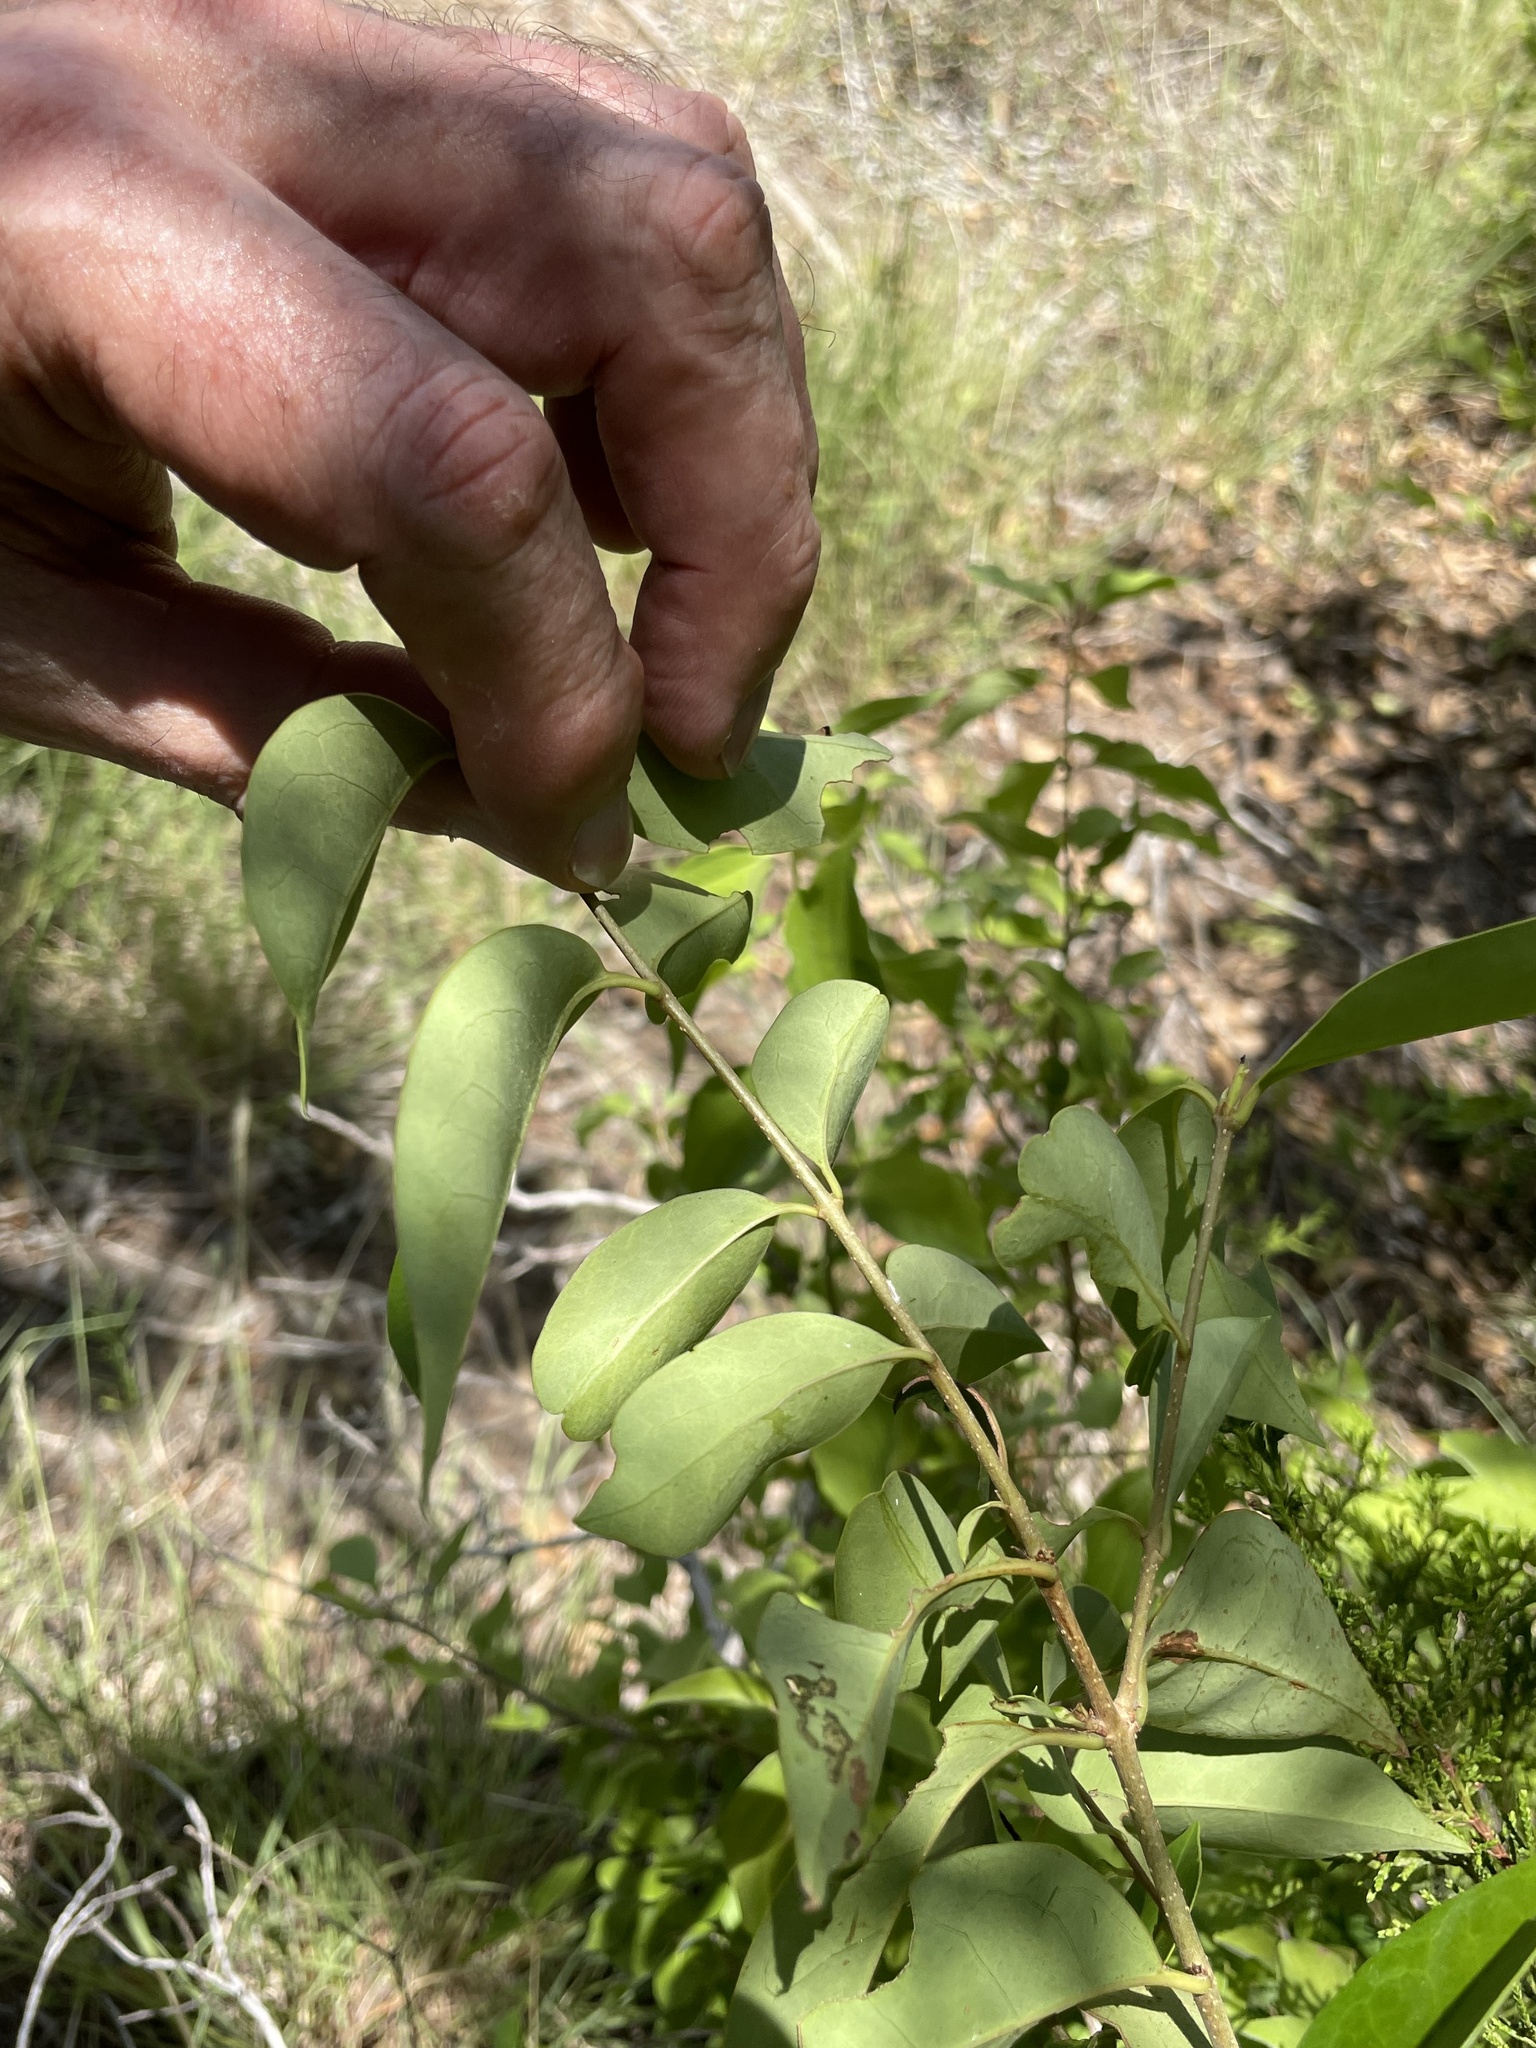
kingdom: Plantae
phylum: Tracheophyta
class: Magnoliopsida
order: Lamiales
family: Oleaceae
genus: Ligustrum
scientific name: Ligustrum lucidum
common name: Glossy privet
